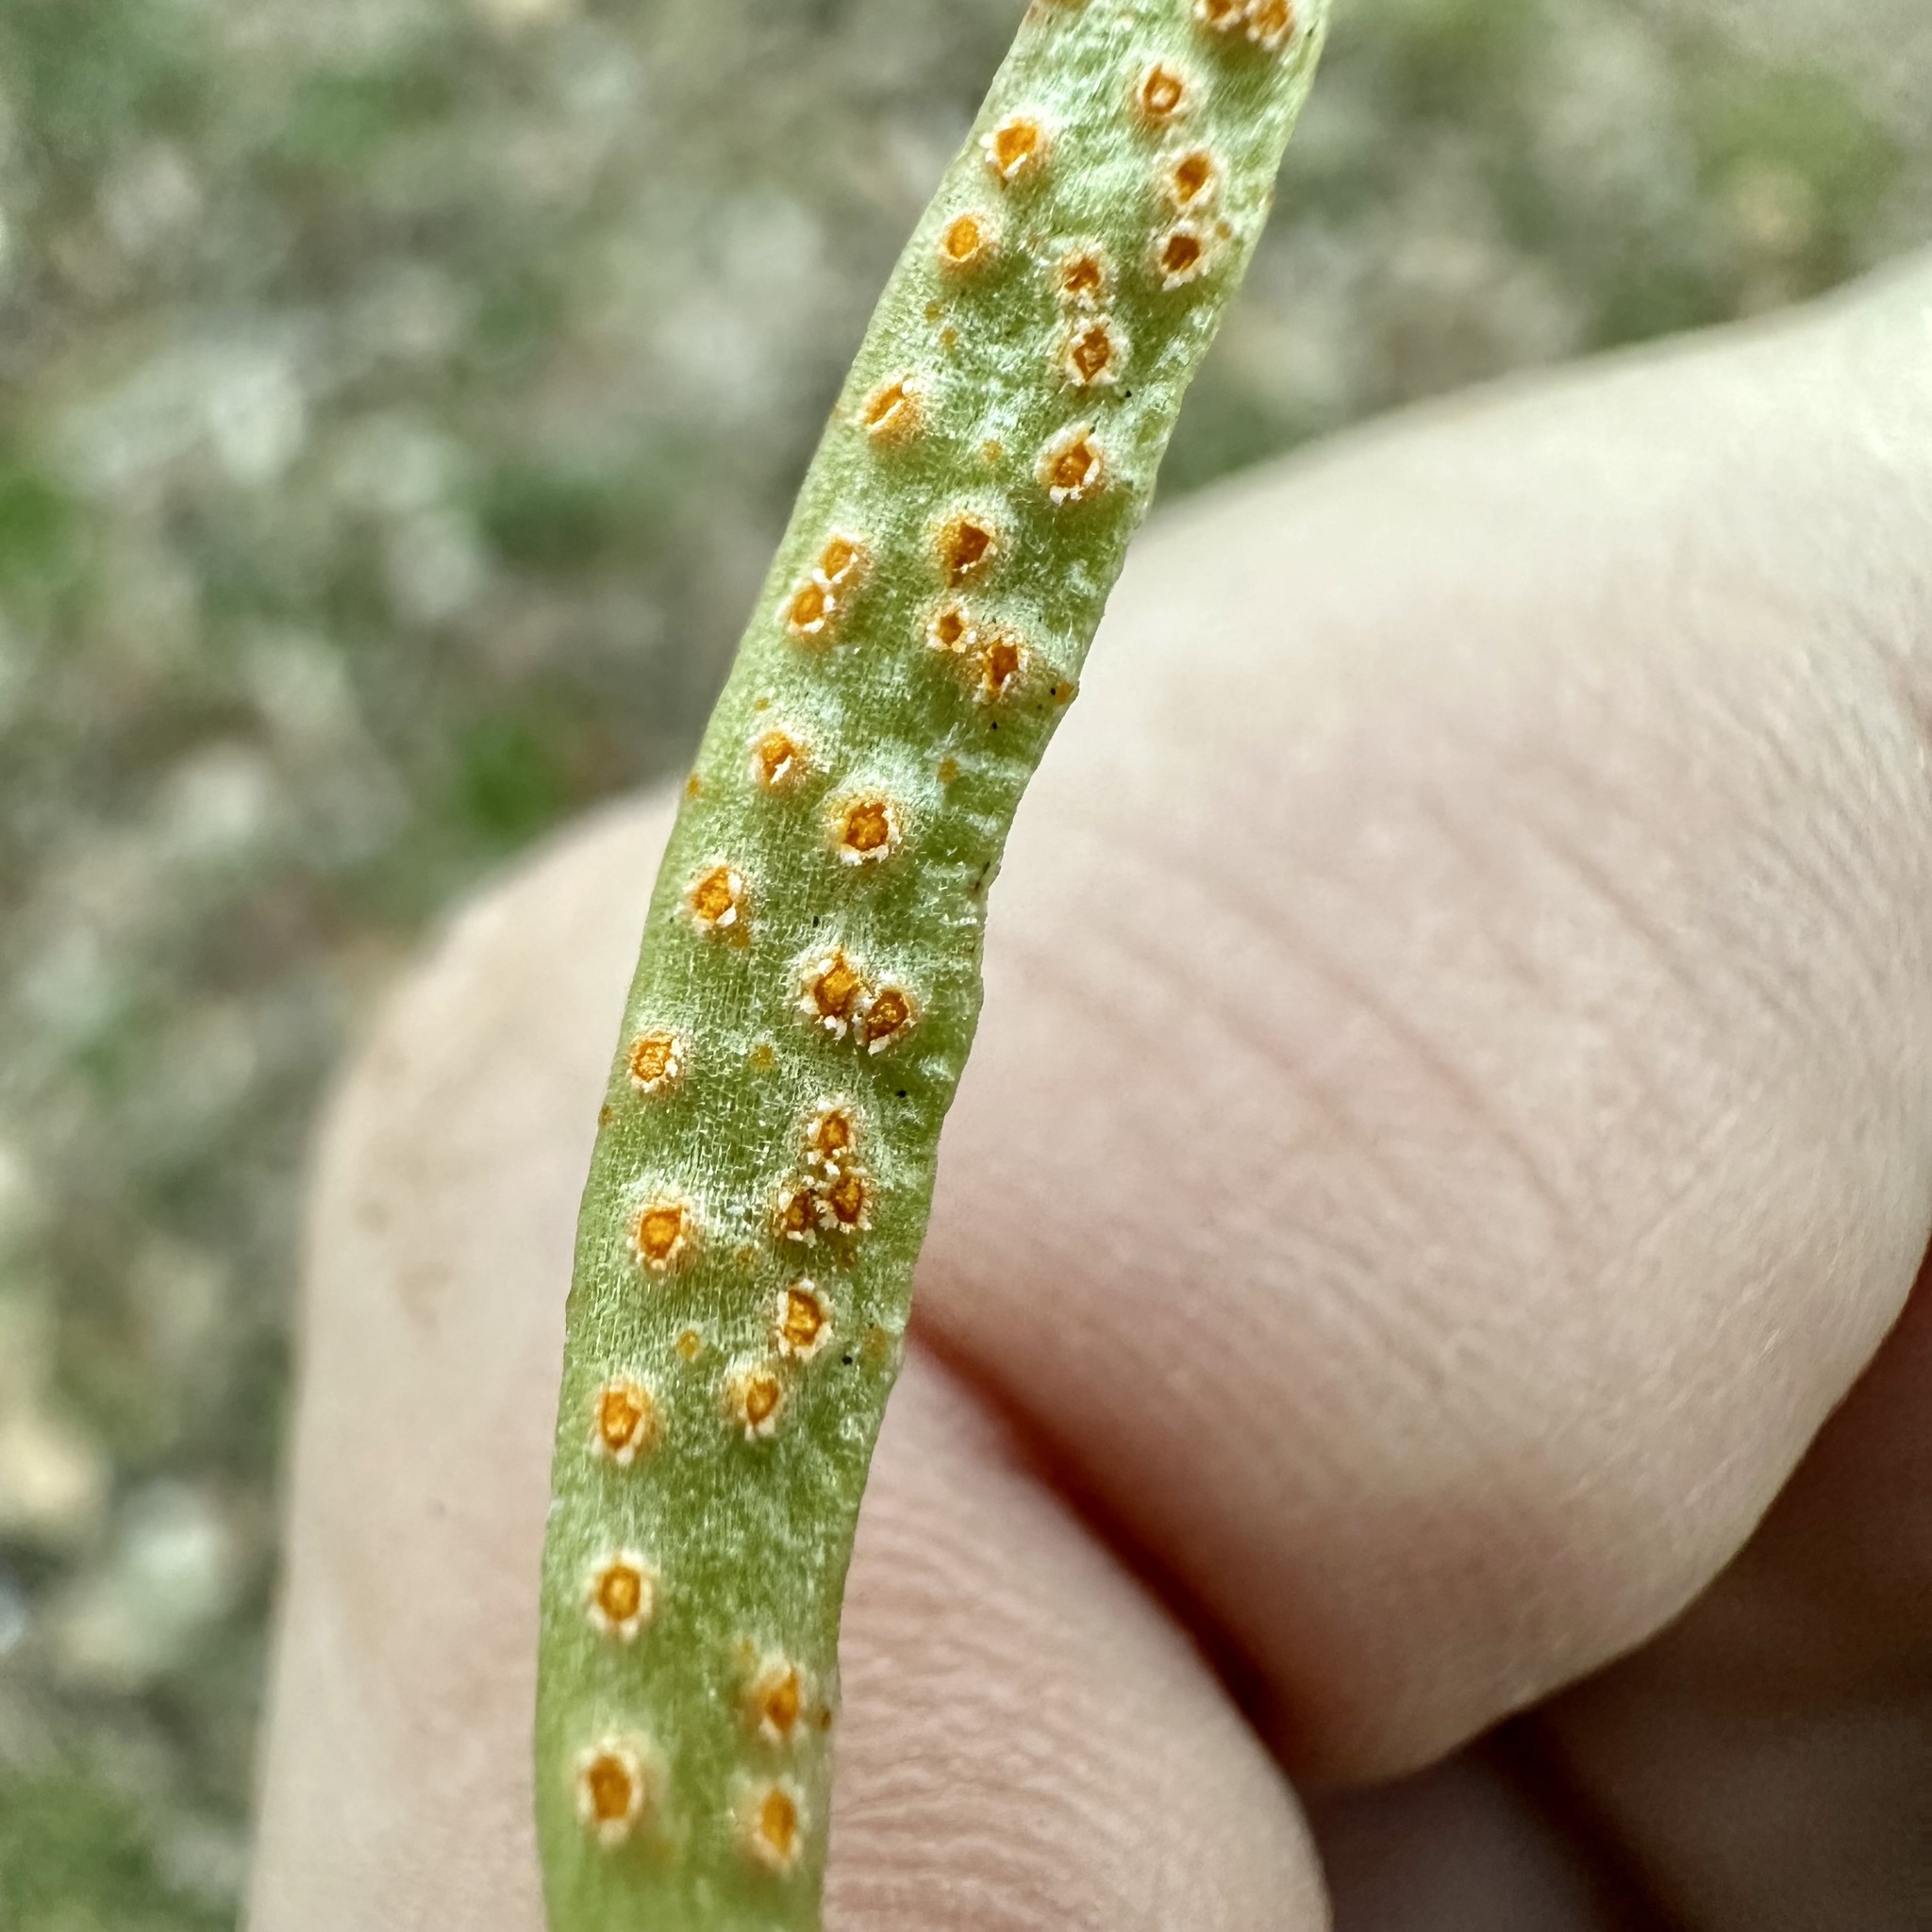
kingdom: Fungi
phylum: Basidiomycota
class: Pucciniomycetes
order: Pucciniales
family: Pucciniaceae
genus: Puccinia
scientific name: Puccinia mariae-wilsoniae
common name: Spring beauty rust
